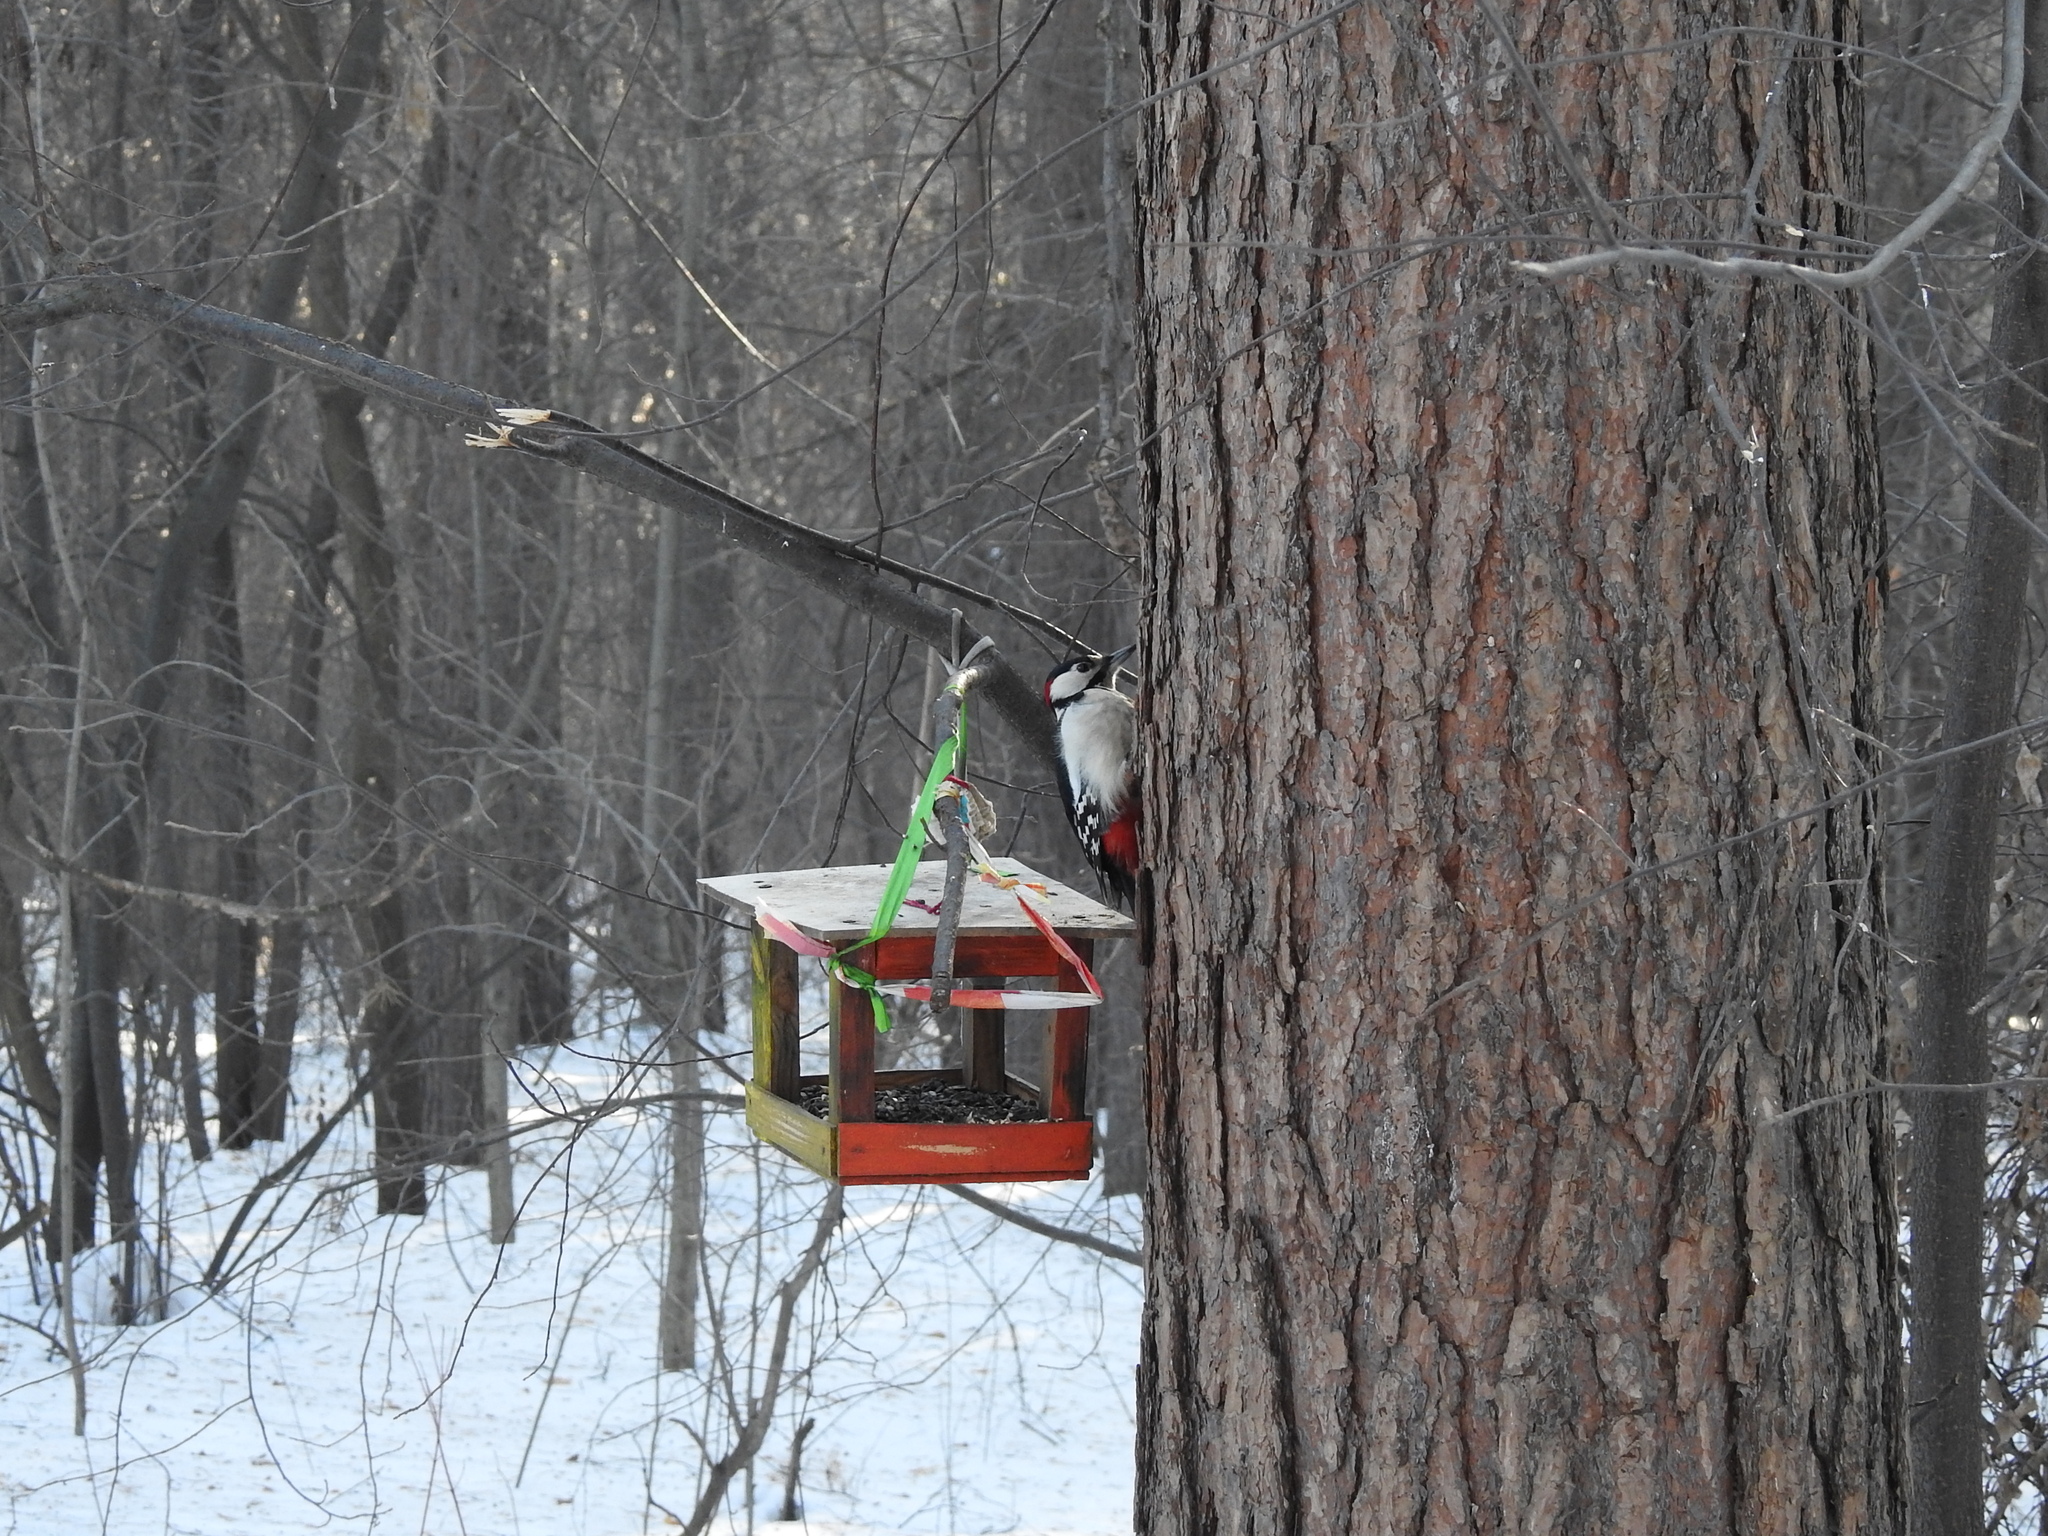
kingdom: Animalia
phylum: Chordata
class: Aves
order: Piciformes
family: Picidae
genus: Dendrocopos
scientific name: Dendrocopos major
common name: Great spotted woodpecker
